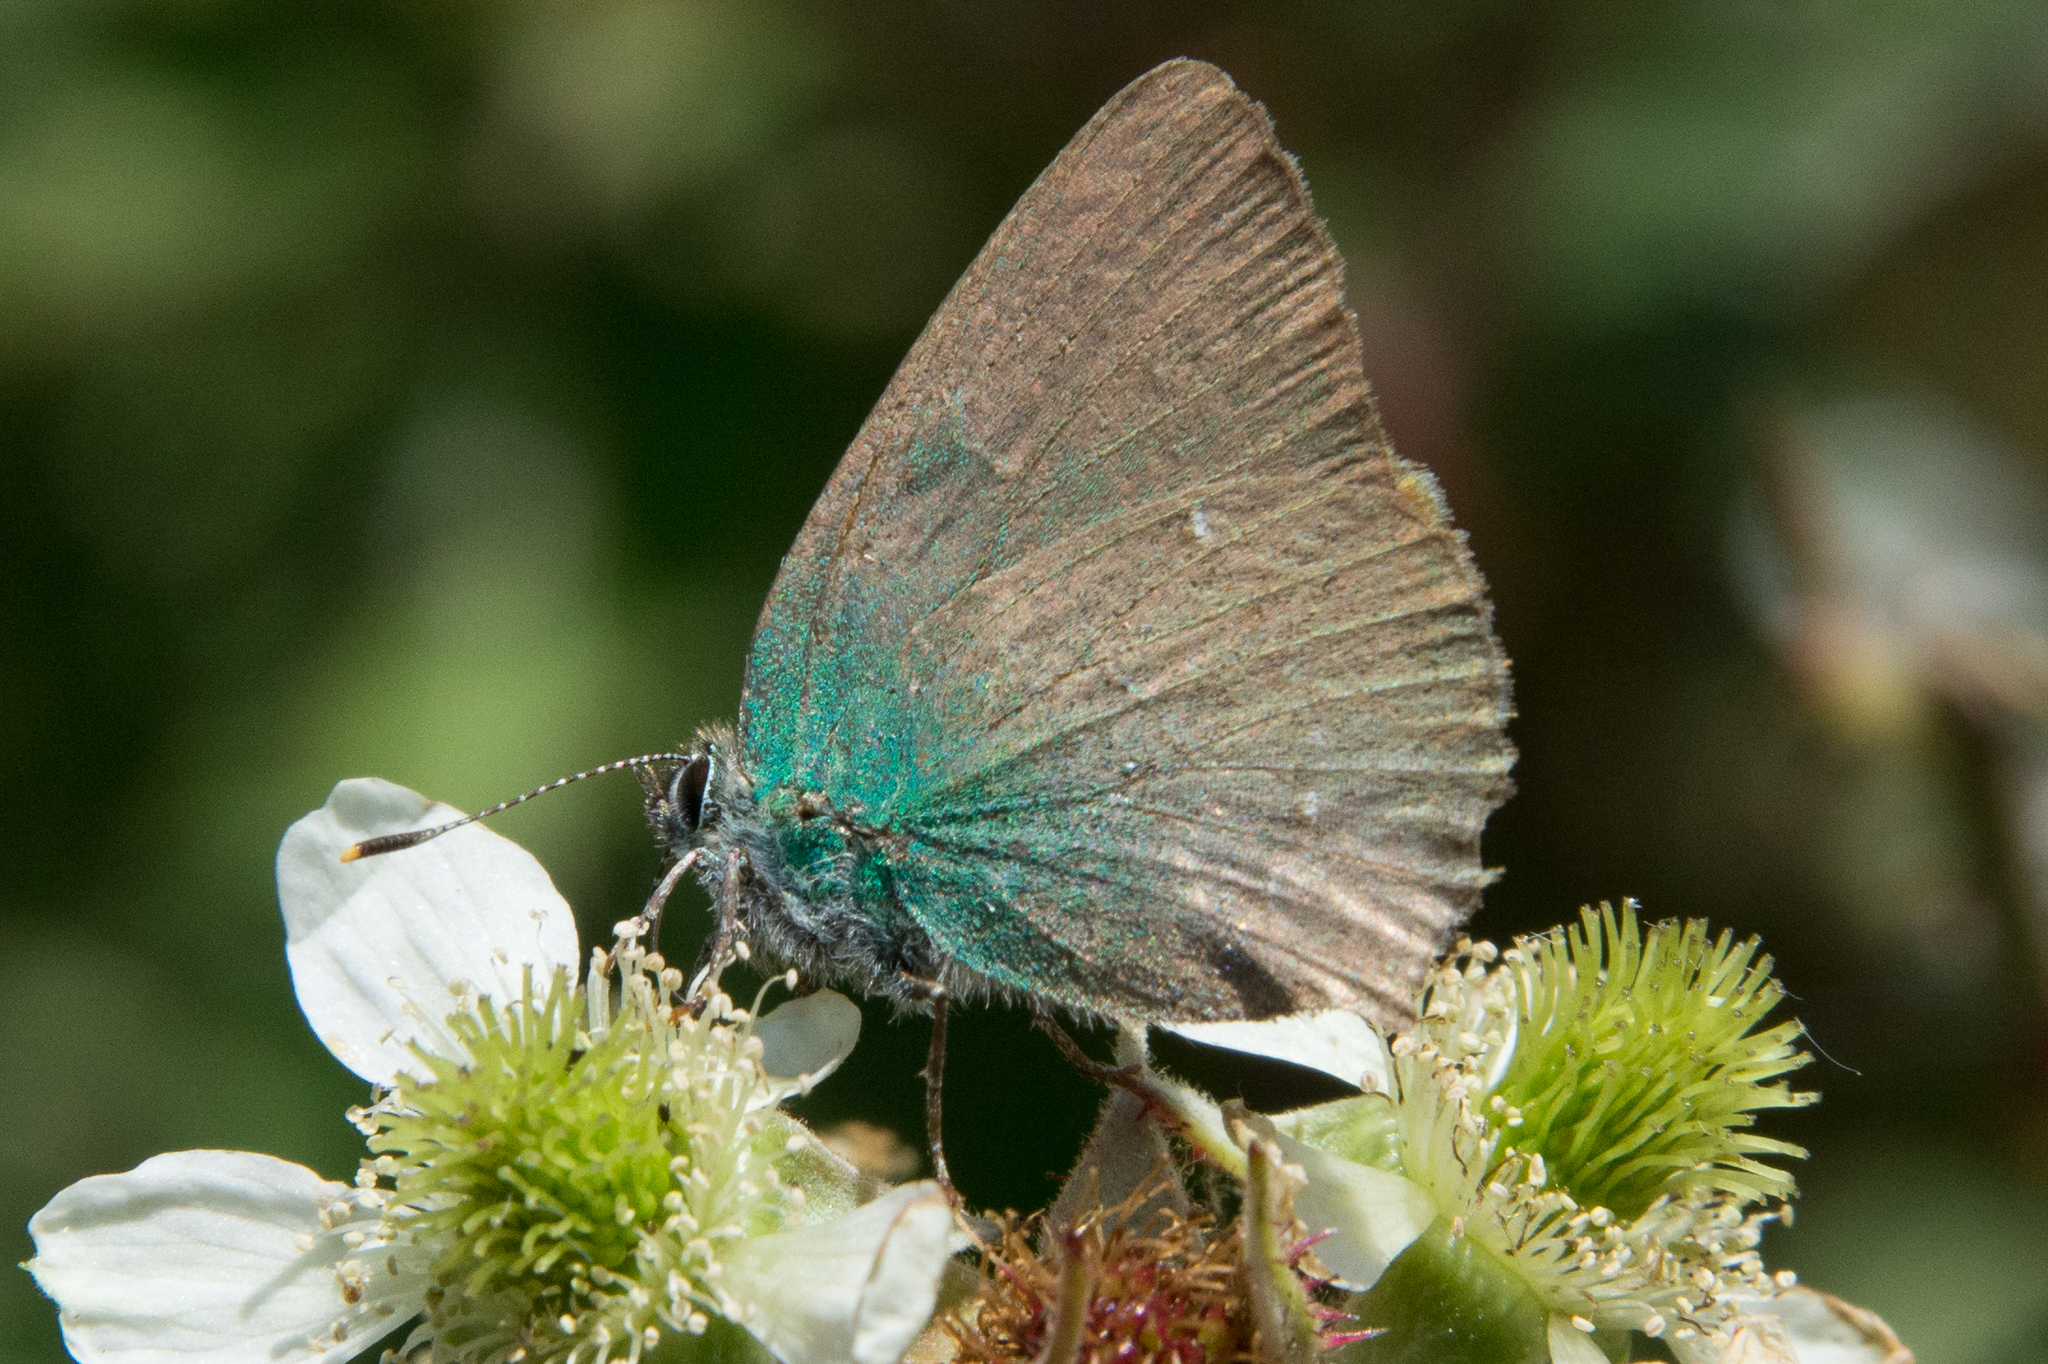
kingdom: Animalia
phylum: Arthropoda
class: Insecta
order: Lepidoptera
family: Lycaenidae
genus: Callophrys
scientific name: Callophrys rubi
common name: Green hairstreak
